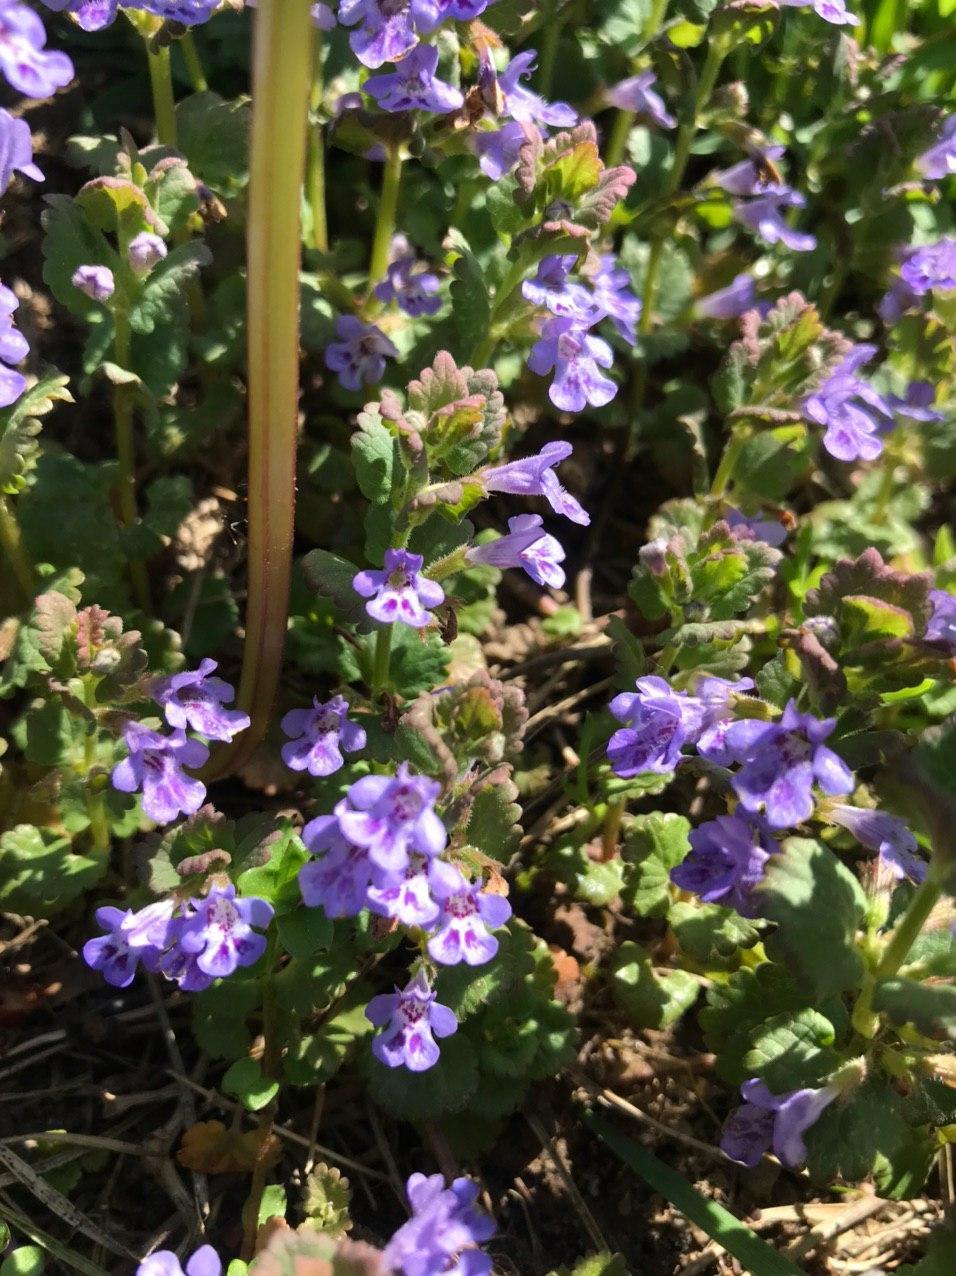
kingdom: Plantae
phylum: Tracheophyta
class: Magnoliopsida
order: Lamiales
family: Lamiaceae
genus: Glechoma
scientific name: Glechoma hederacea
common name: Ground ivy
